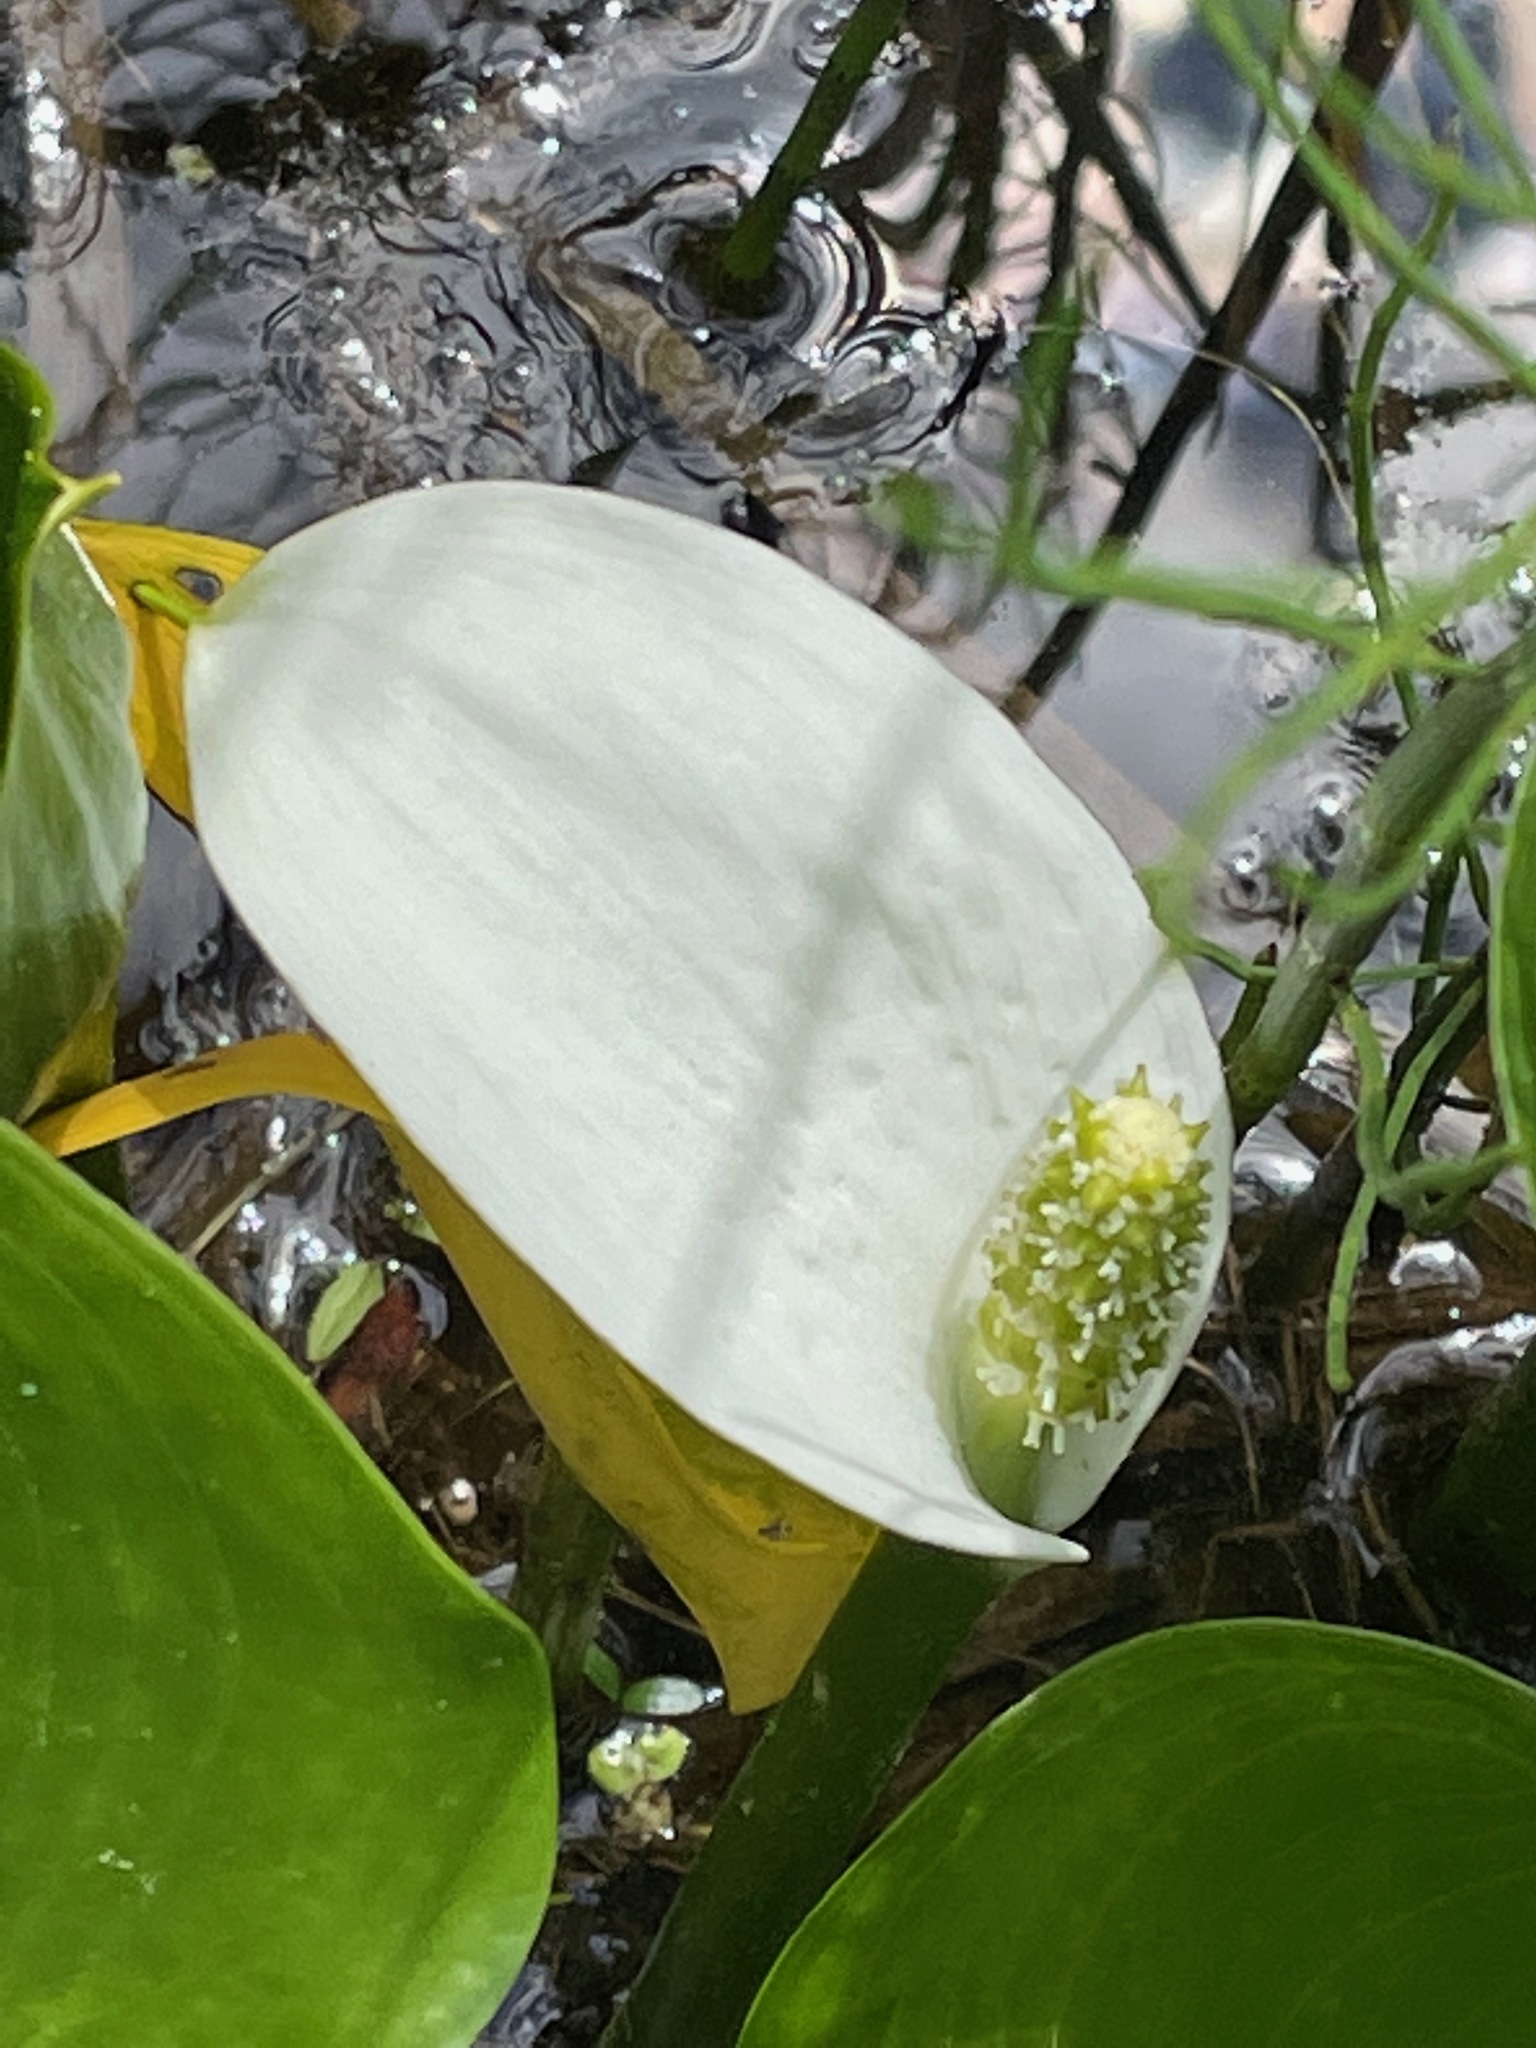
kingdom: Plantae
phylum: Tracheophyta
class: Liliopsida
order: Alismatales
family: Araceae
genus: Calla
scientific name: Calla palustris
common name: Bog arum
